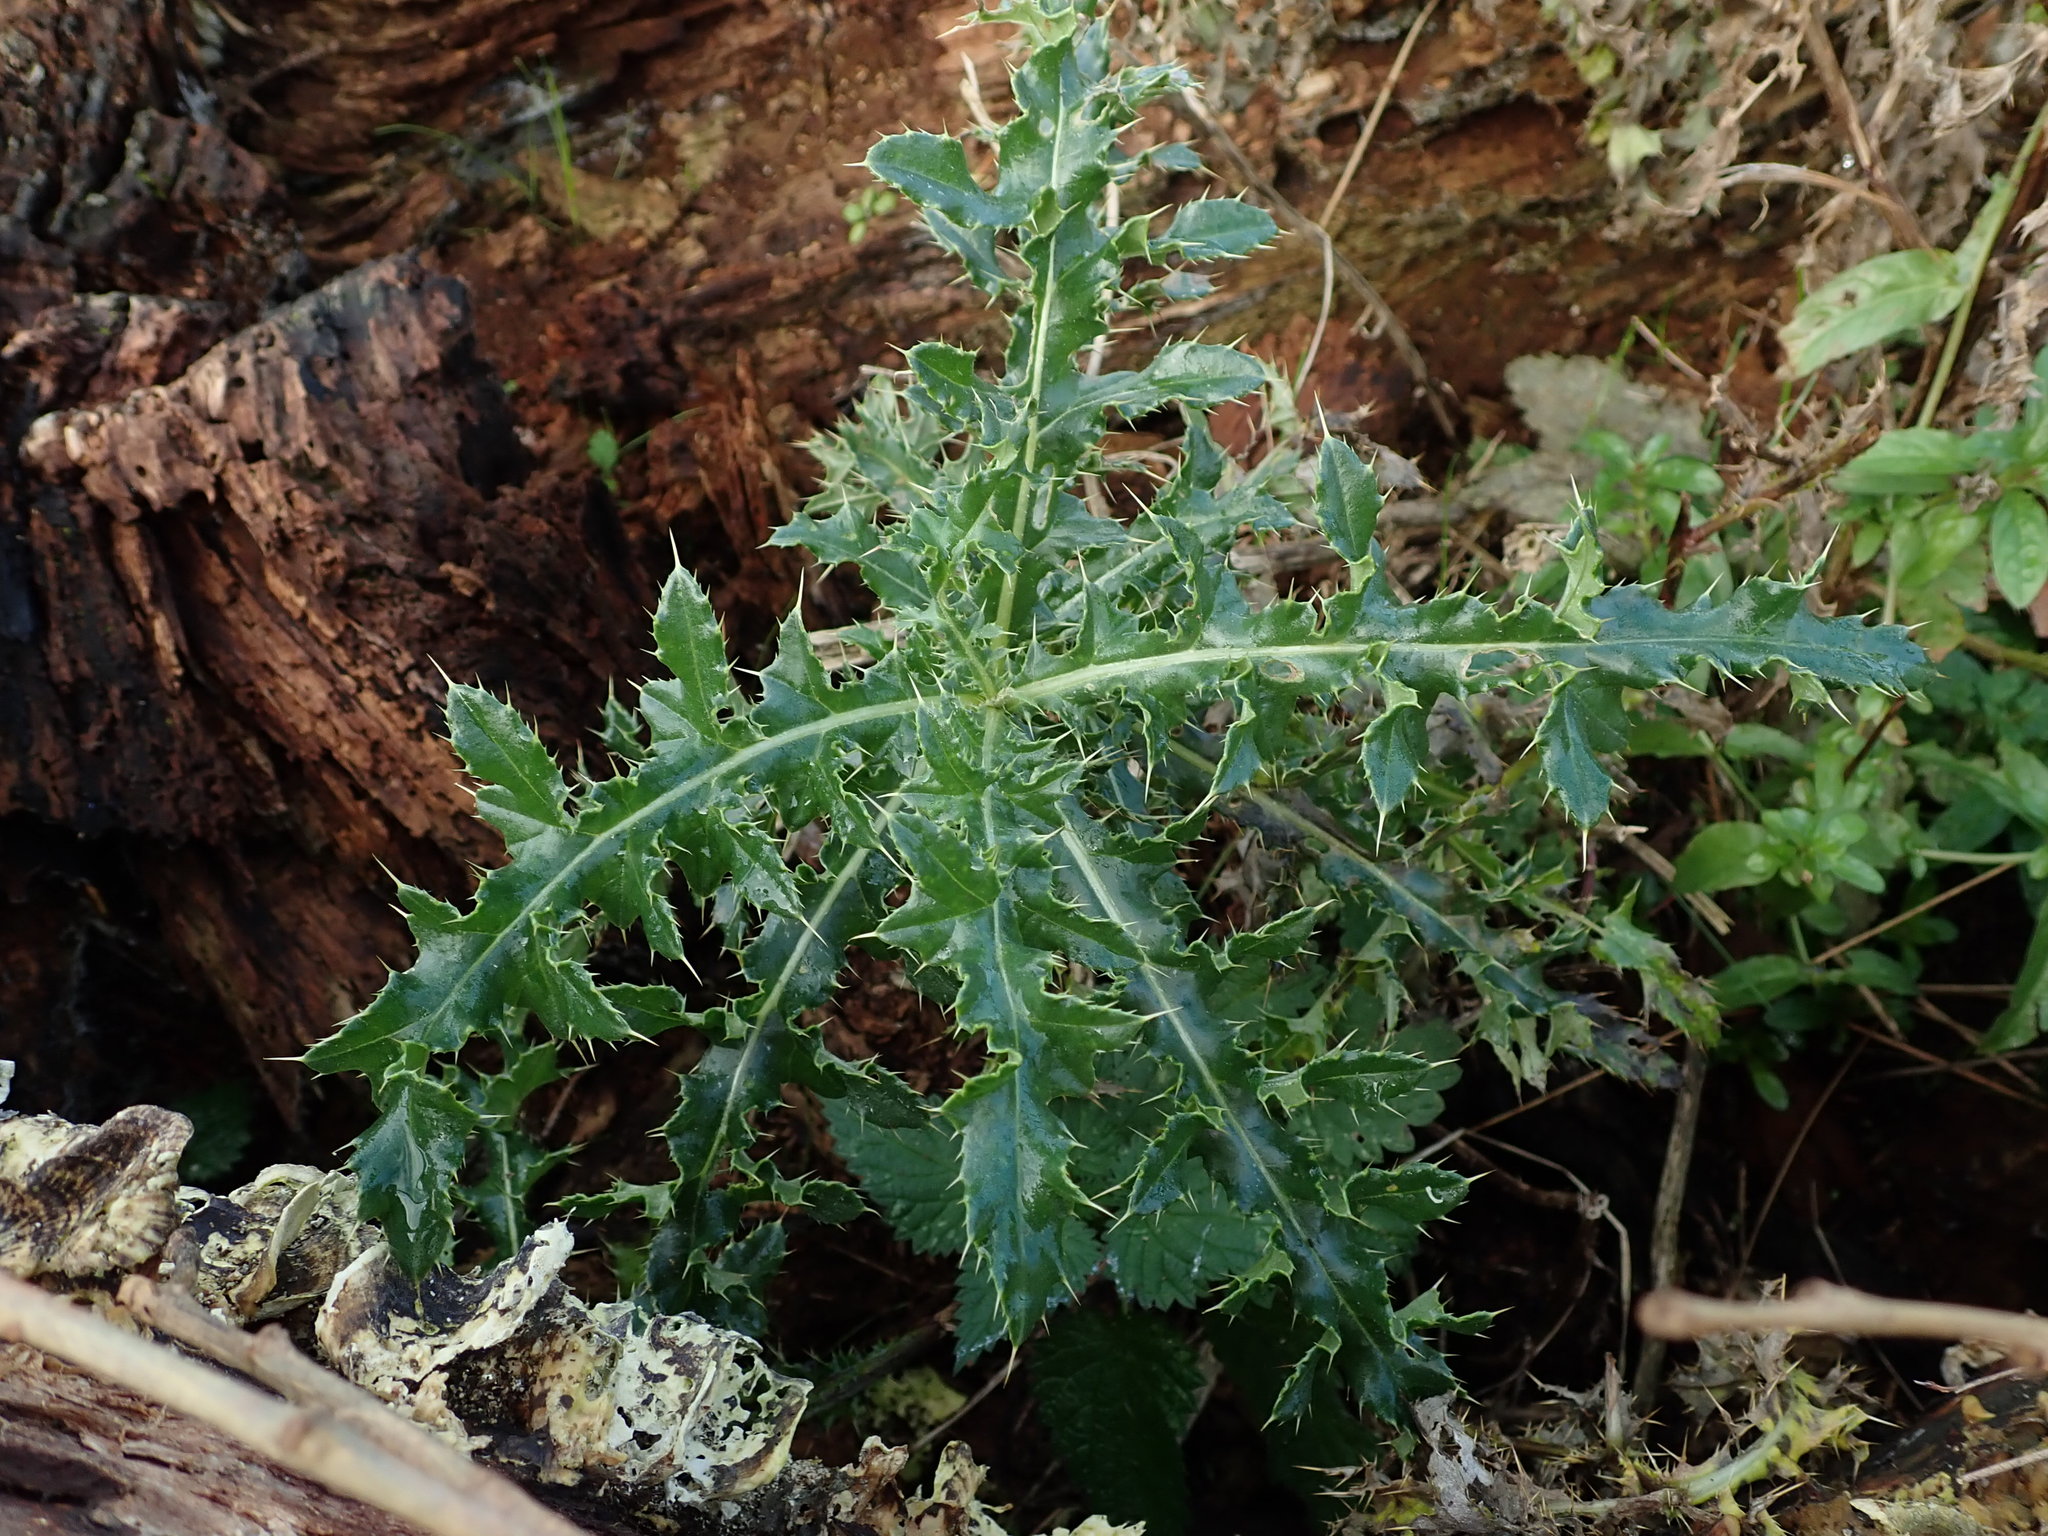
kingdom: Plantae
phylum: Tracheophyta
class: Magnoliopsida
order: Asterales
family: Asteraceae
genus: Cirsium
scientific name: Cirsium arvense
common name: Creeping thistle
